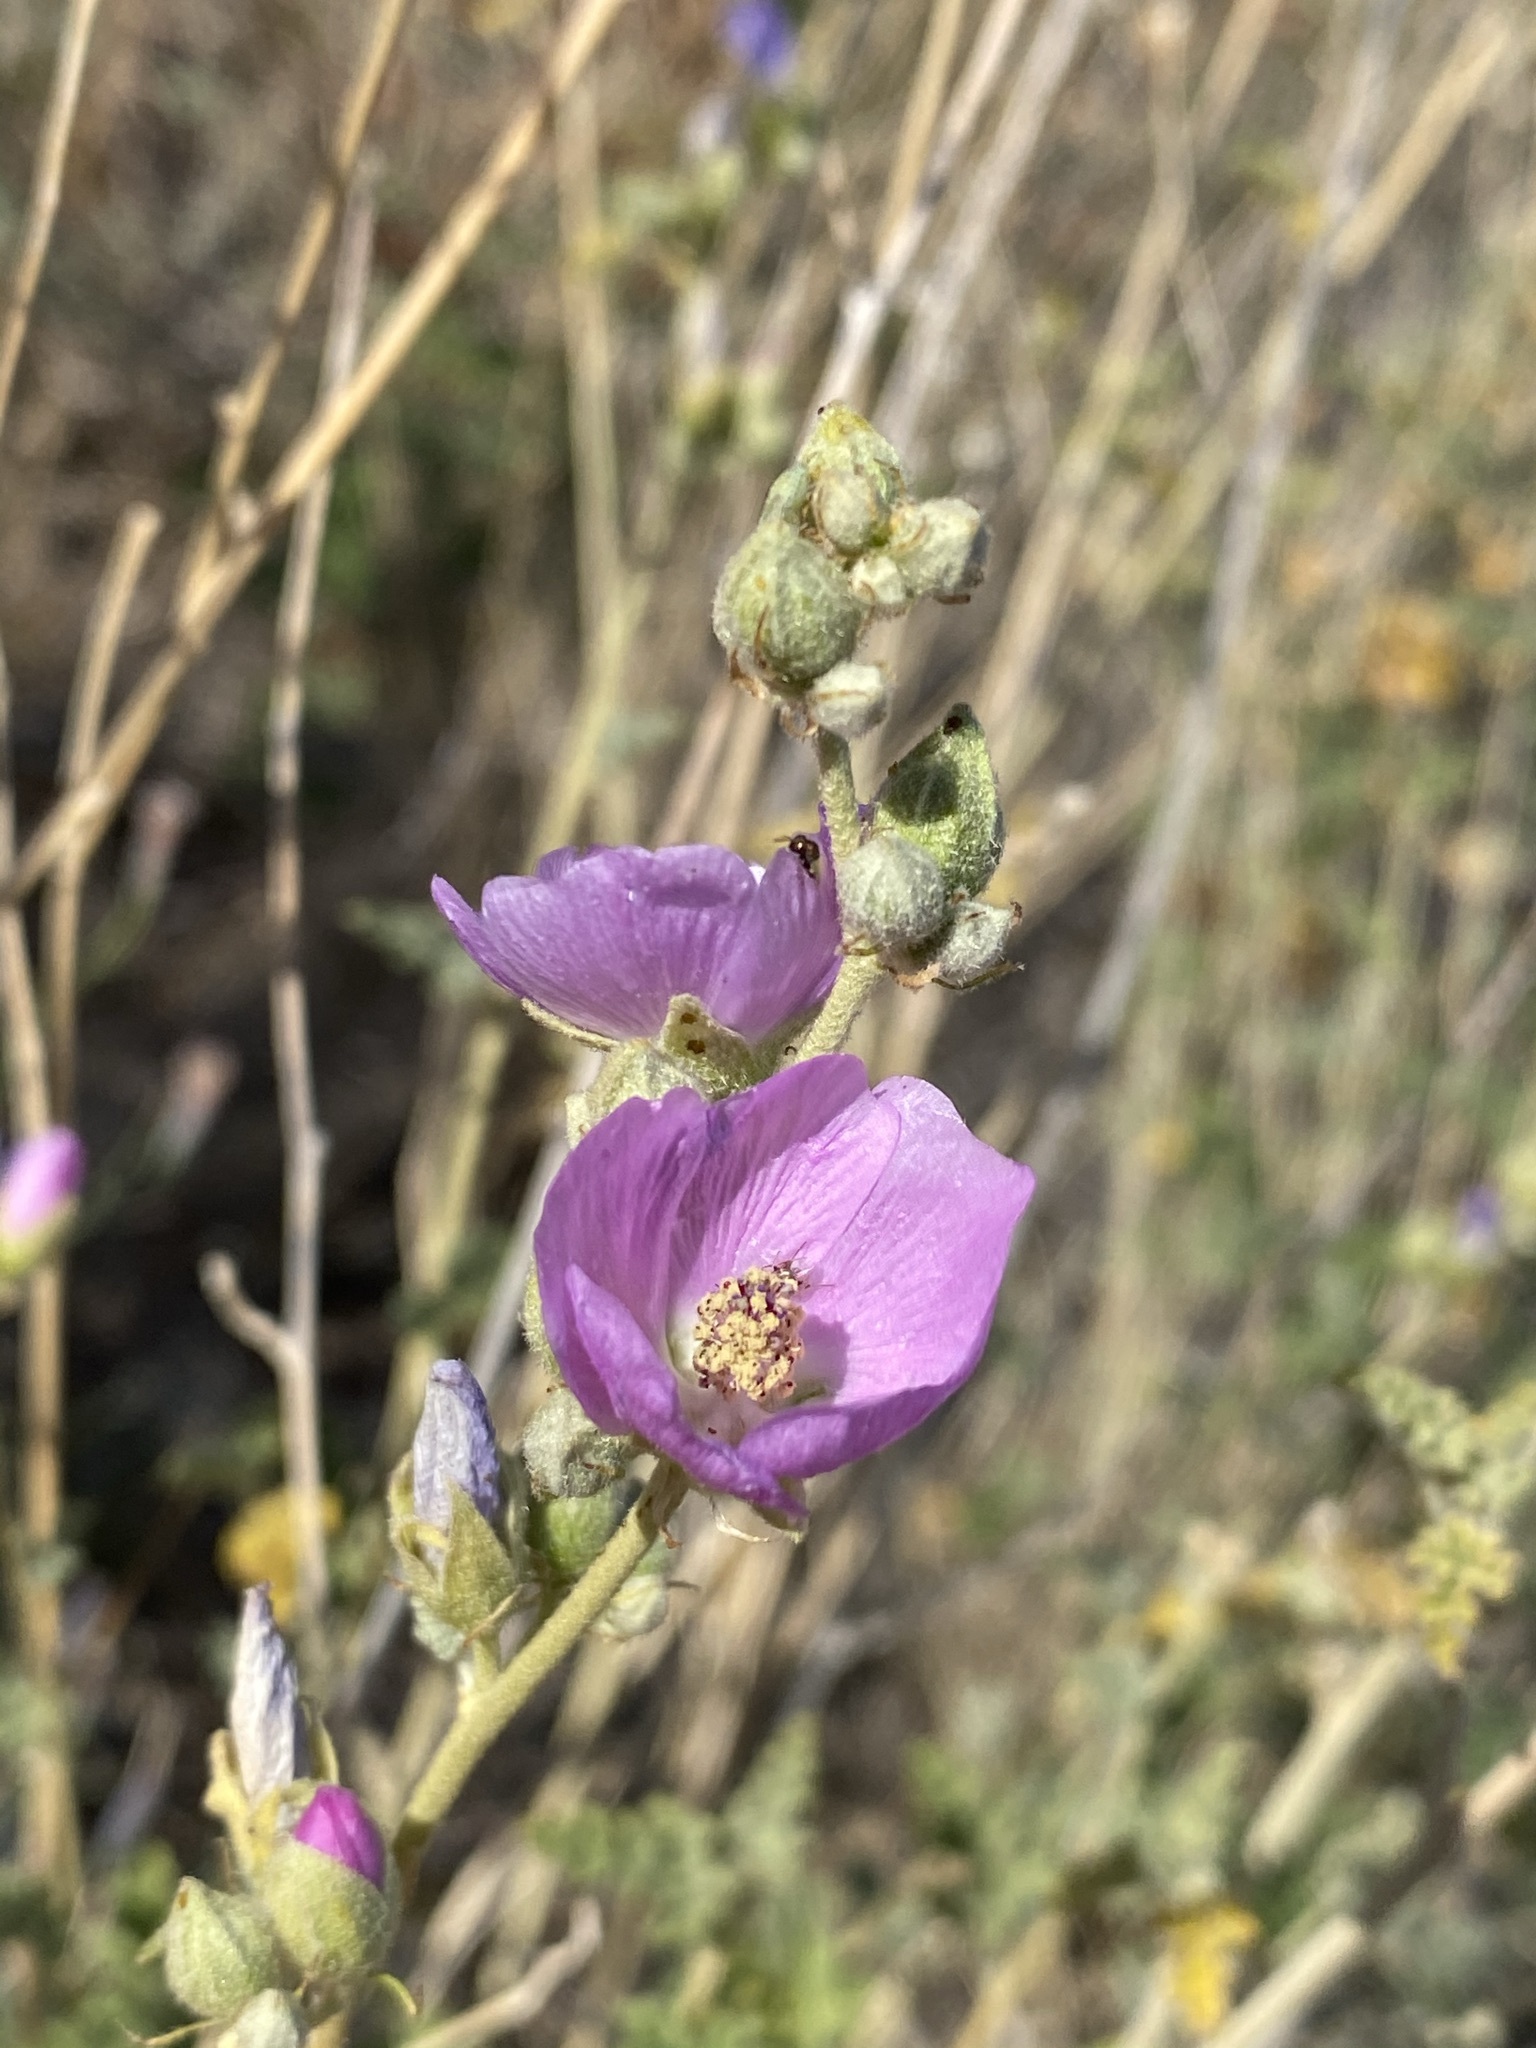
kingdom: Plantae
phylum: Tracheophyta
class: Magnoliopsida
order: Malvales
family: Malvaceae
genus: Sphaeralcea
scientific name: Sphaeralcea ambigua
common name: Apricot globe-mallow
